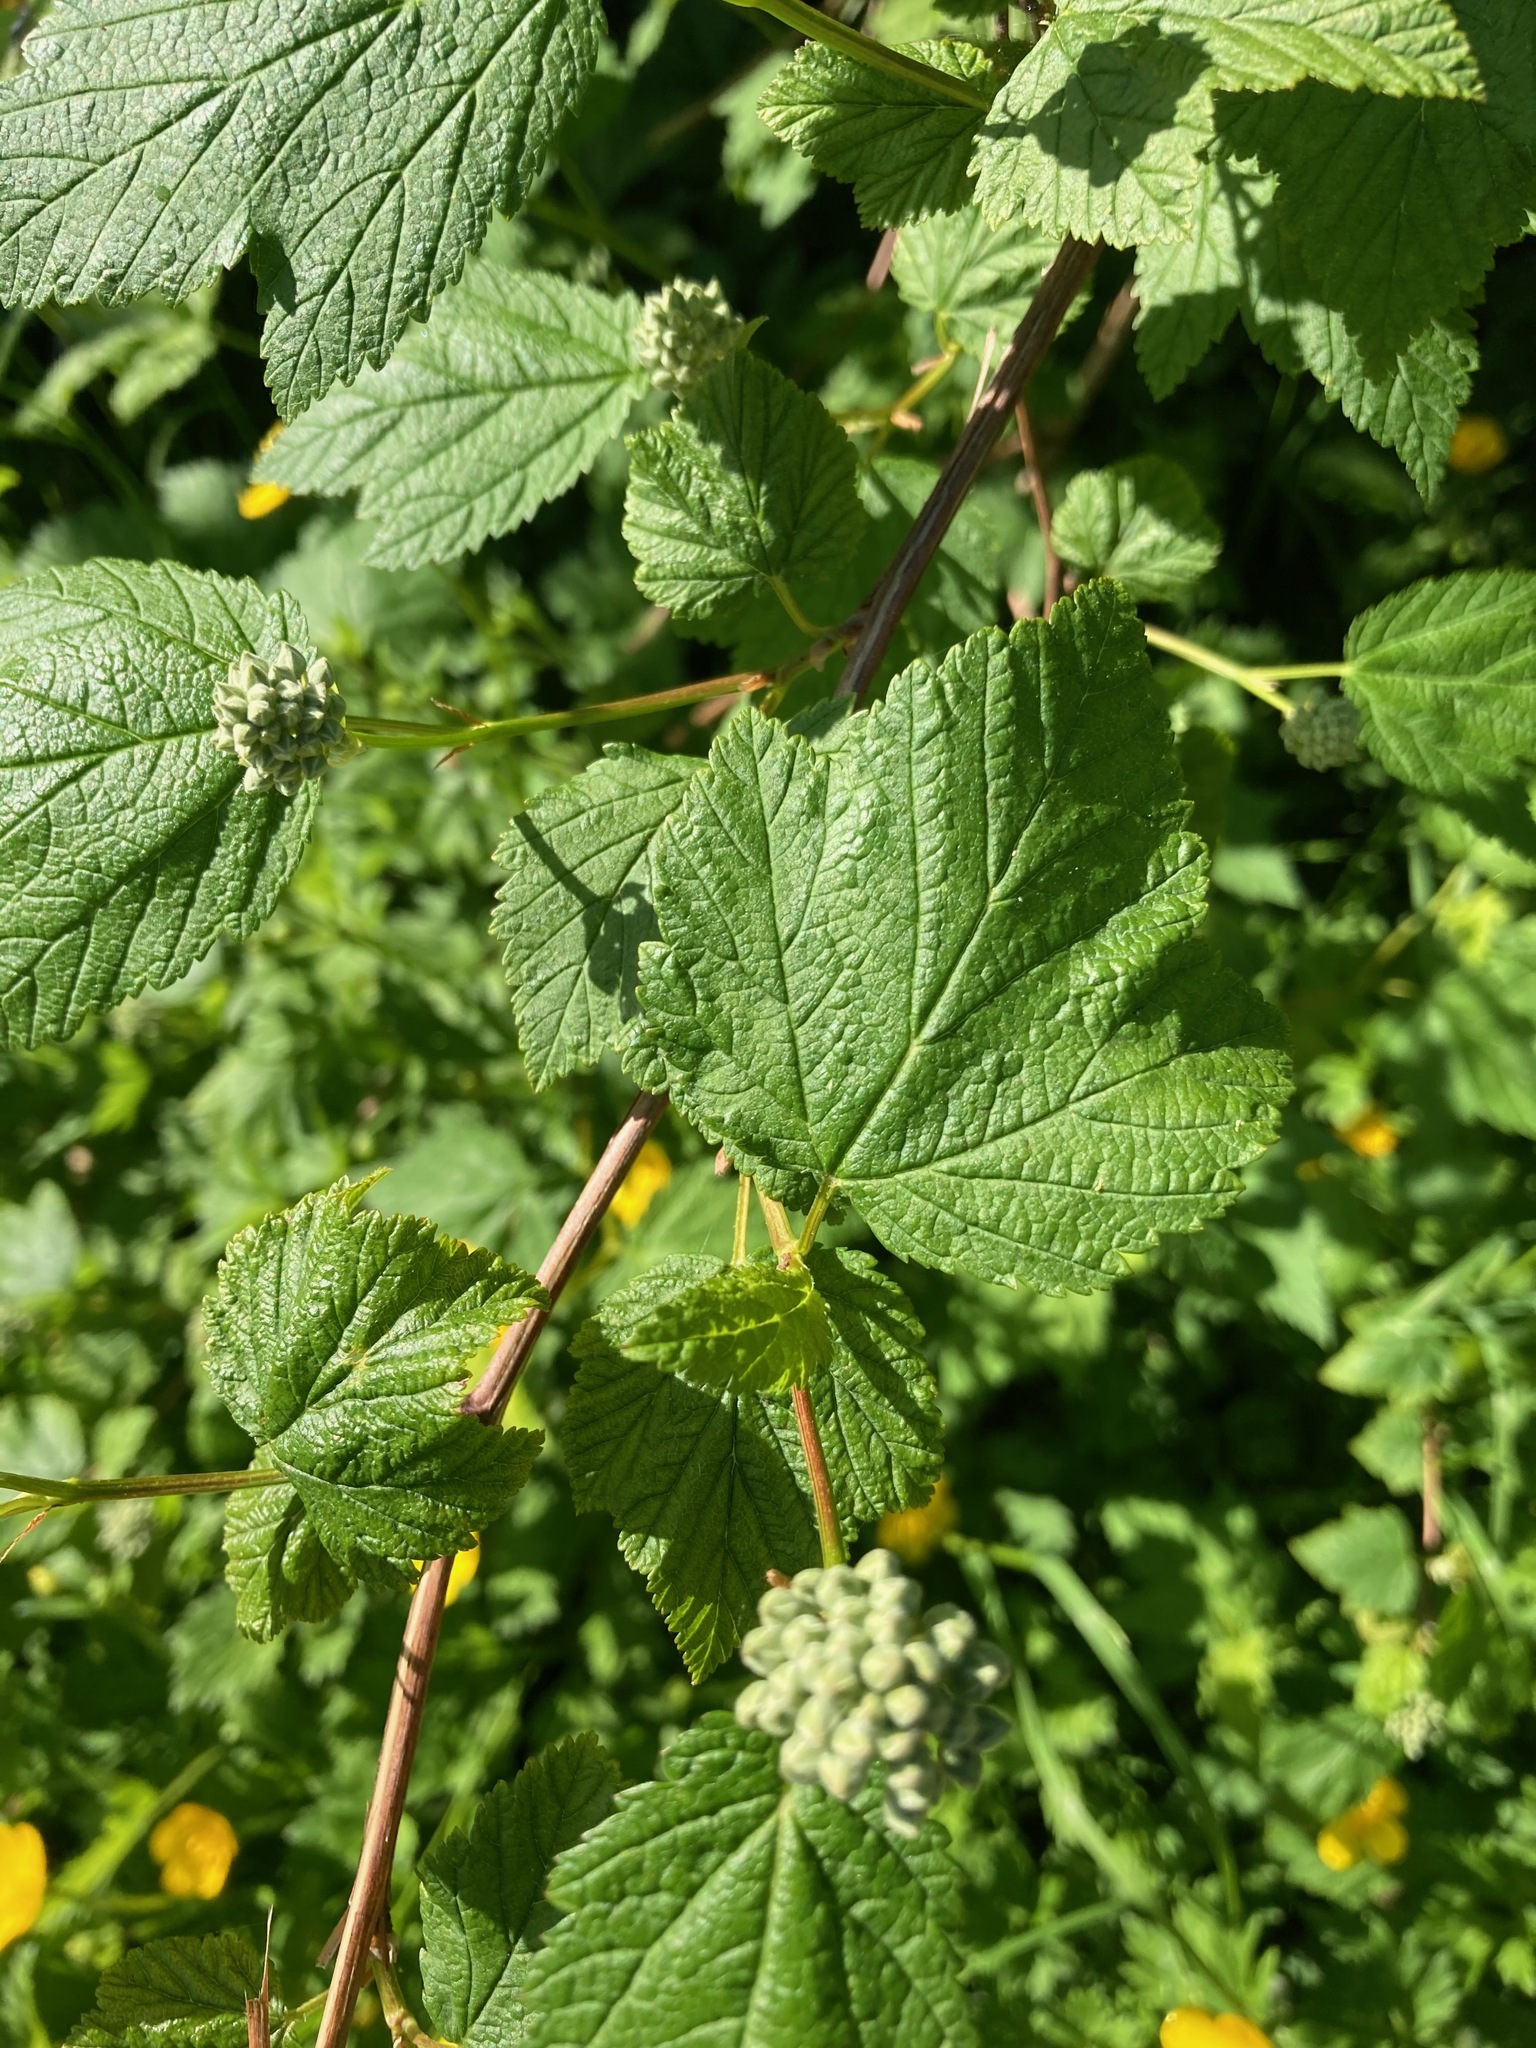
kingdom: Plantae
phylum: Tracheophyta
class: Magnoliopsida
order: Rosales
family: Rosaceae
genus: Physocarpus
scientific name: Physocarpus capitatus
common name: Pacific ninebark
